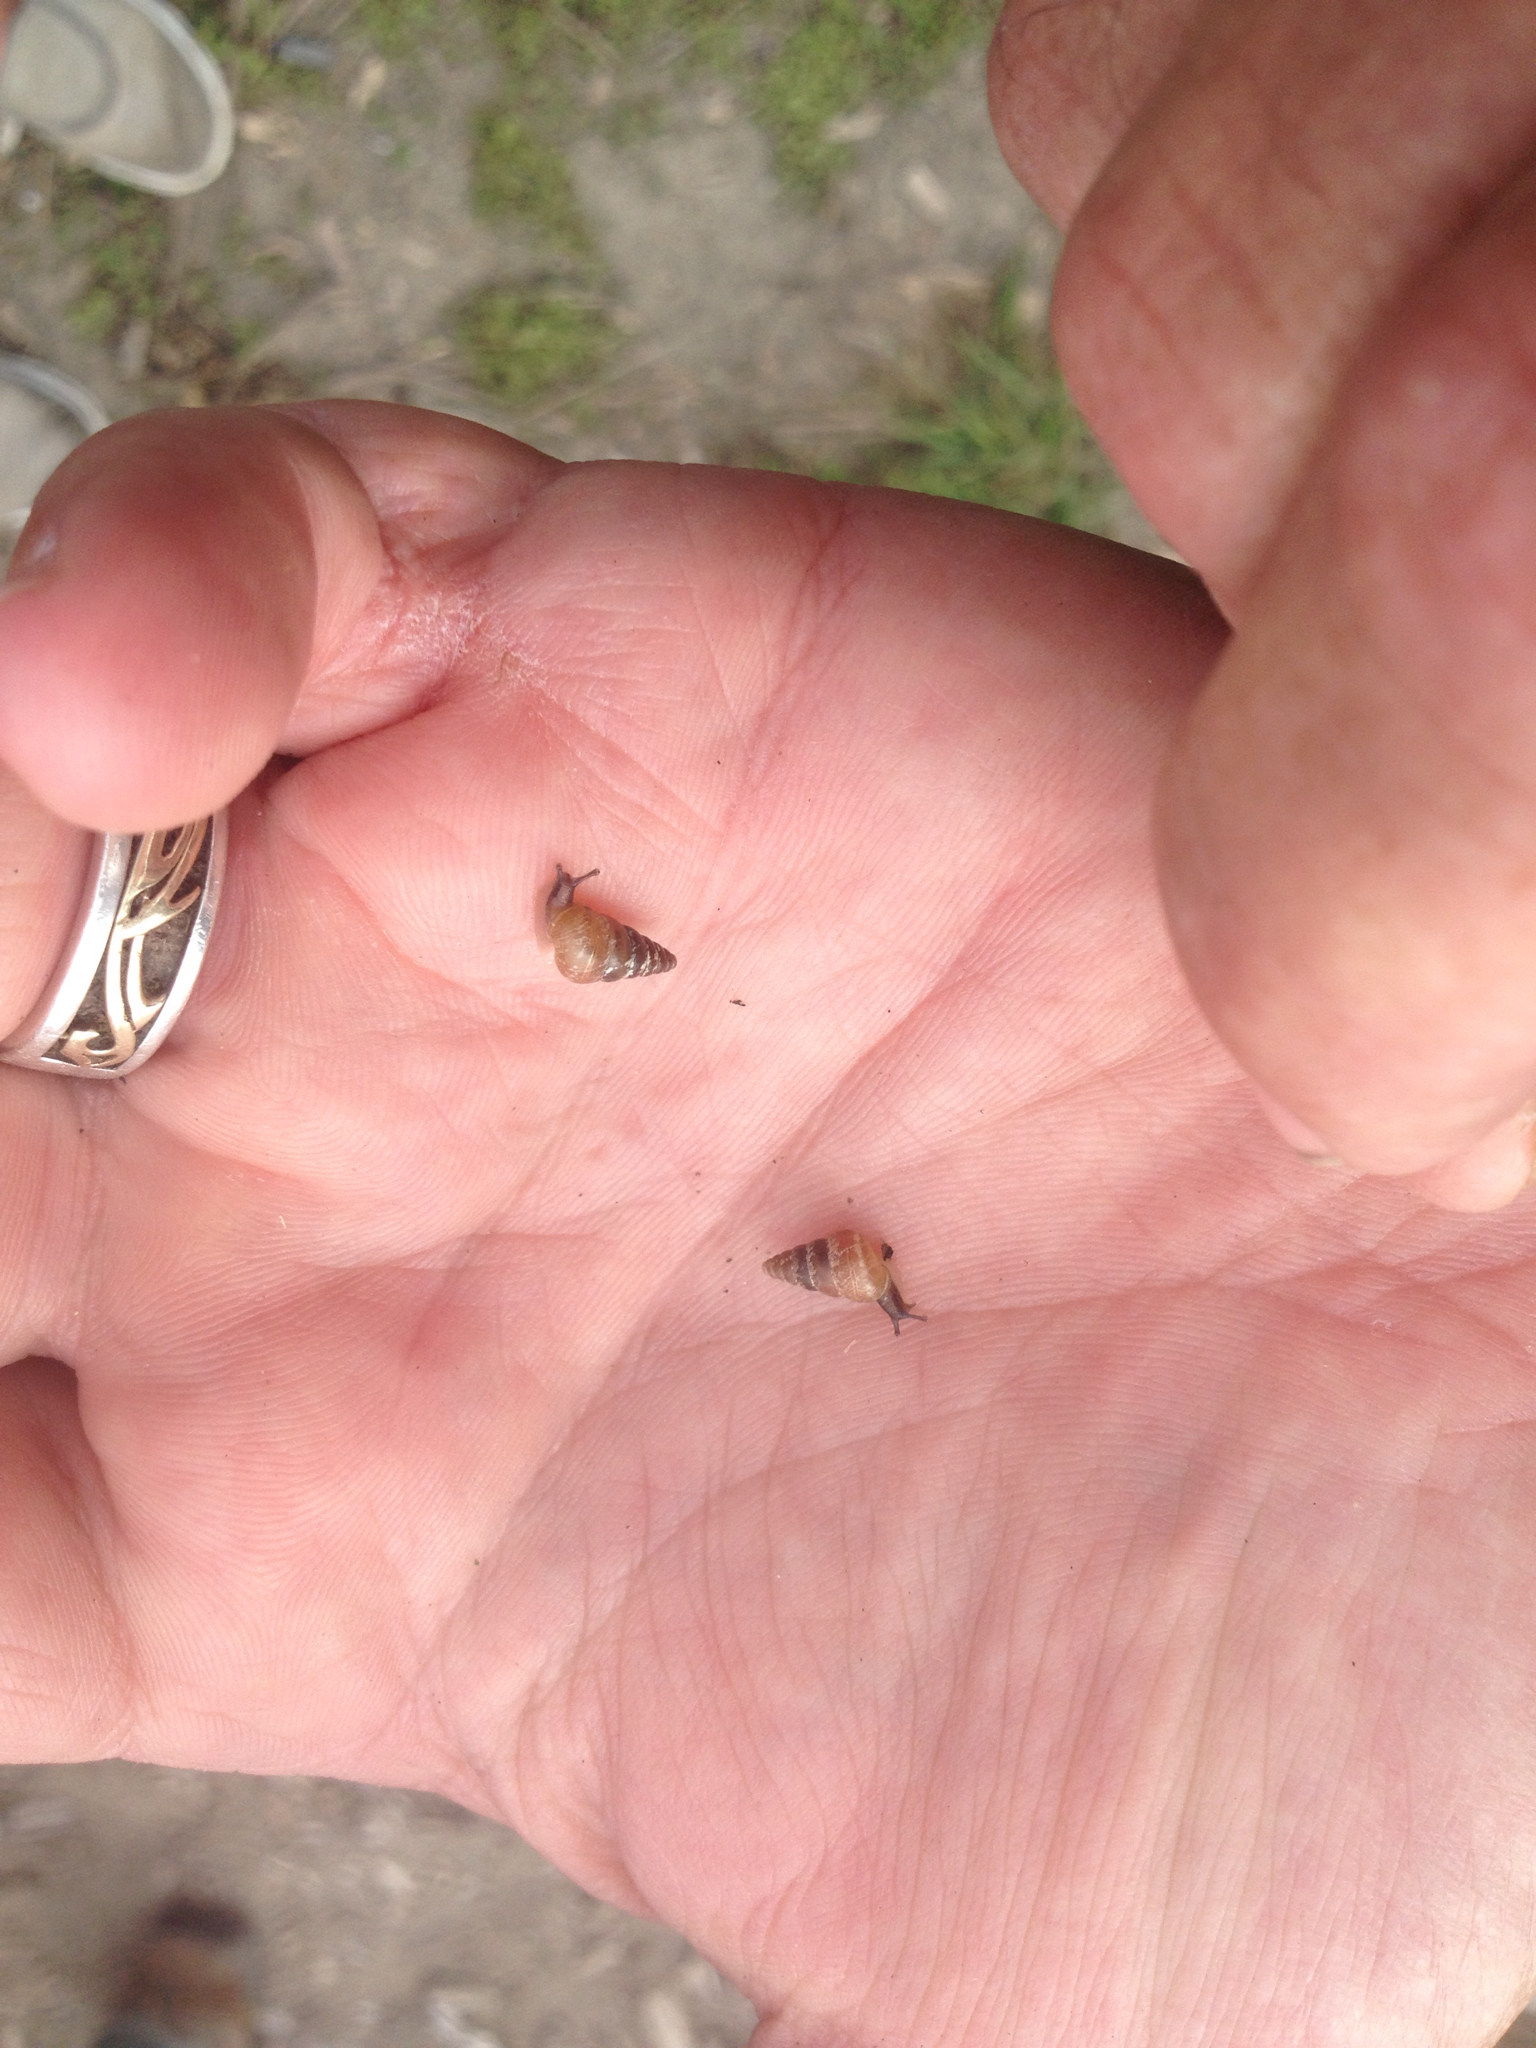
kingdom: Animalia
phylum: Mollusca
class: Gastropoda
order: Stylommatophora
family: Geomitridae
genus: Cochlicella
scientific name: Cochlicella barbara
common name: Potbellied helicellid
